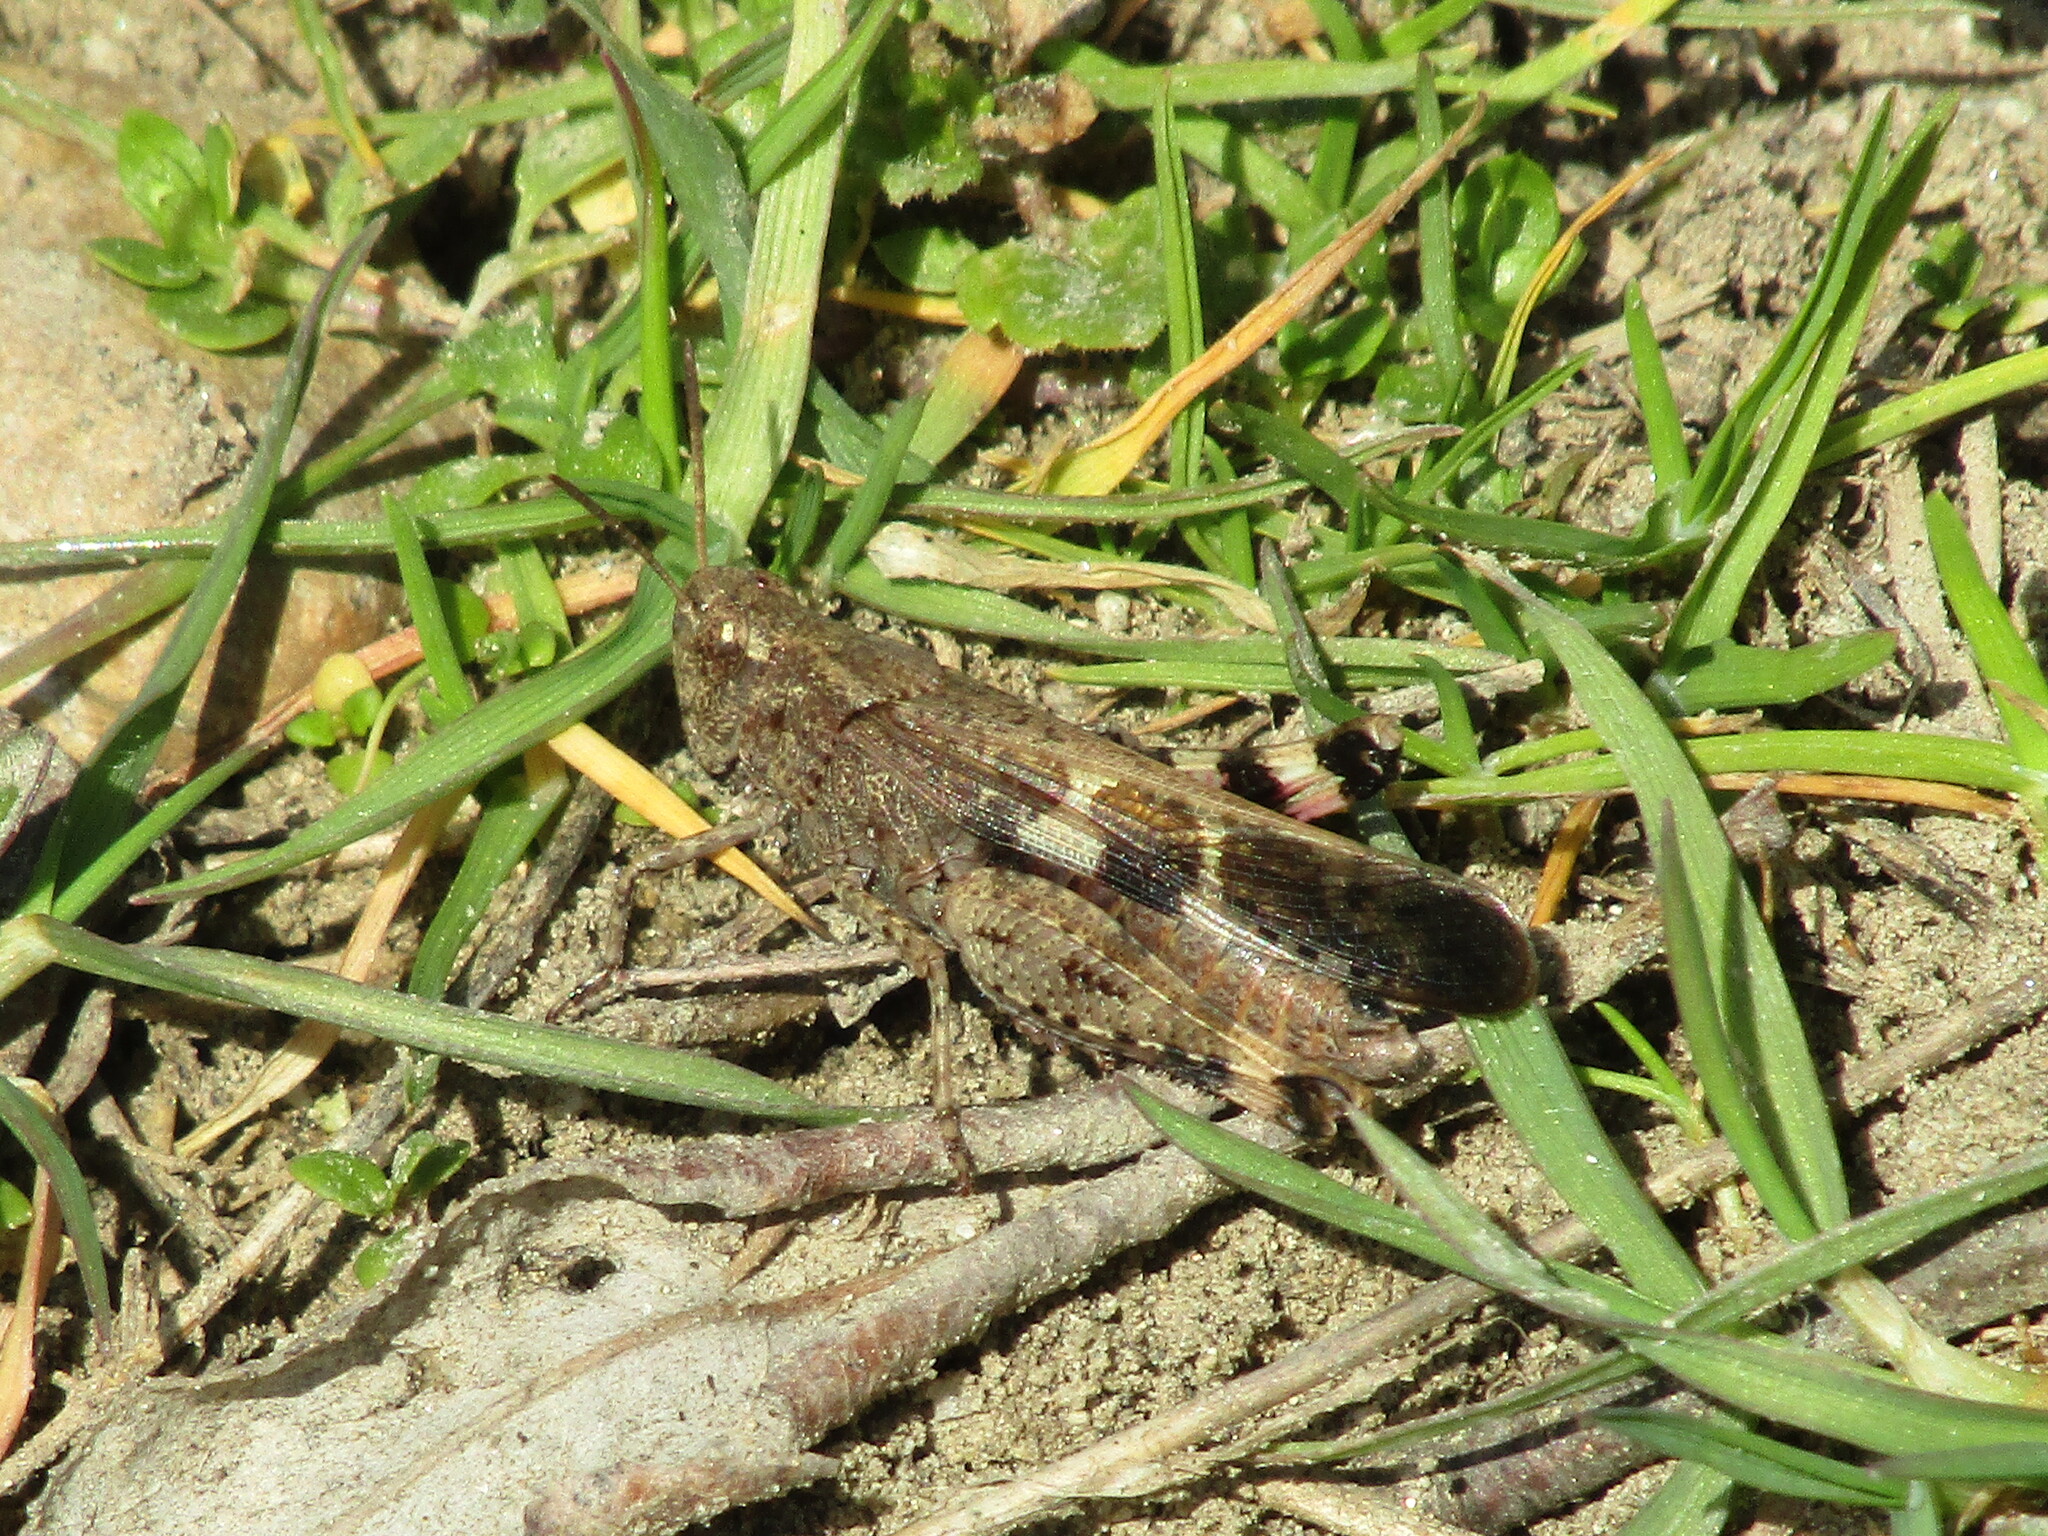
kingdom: Animalia
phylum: Arthropoda
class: Insecta
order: Orthoptera
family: Acrididae
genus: Aiolopus
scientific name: Aiolopus strepens
